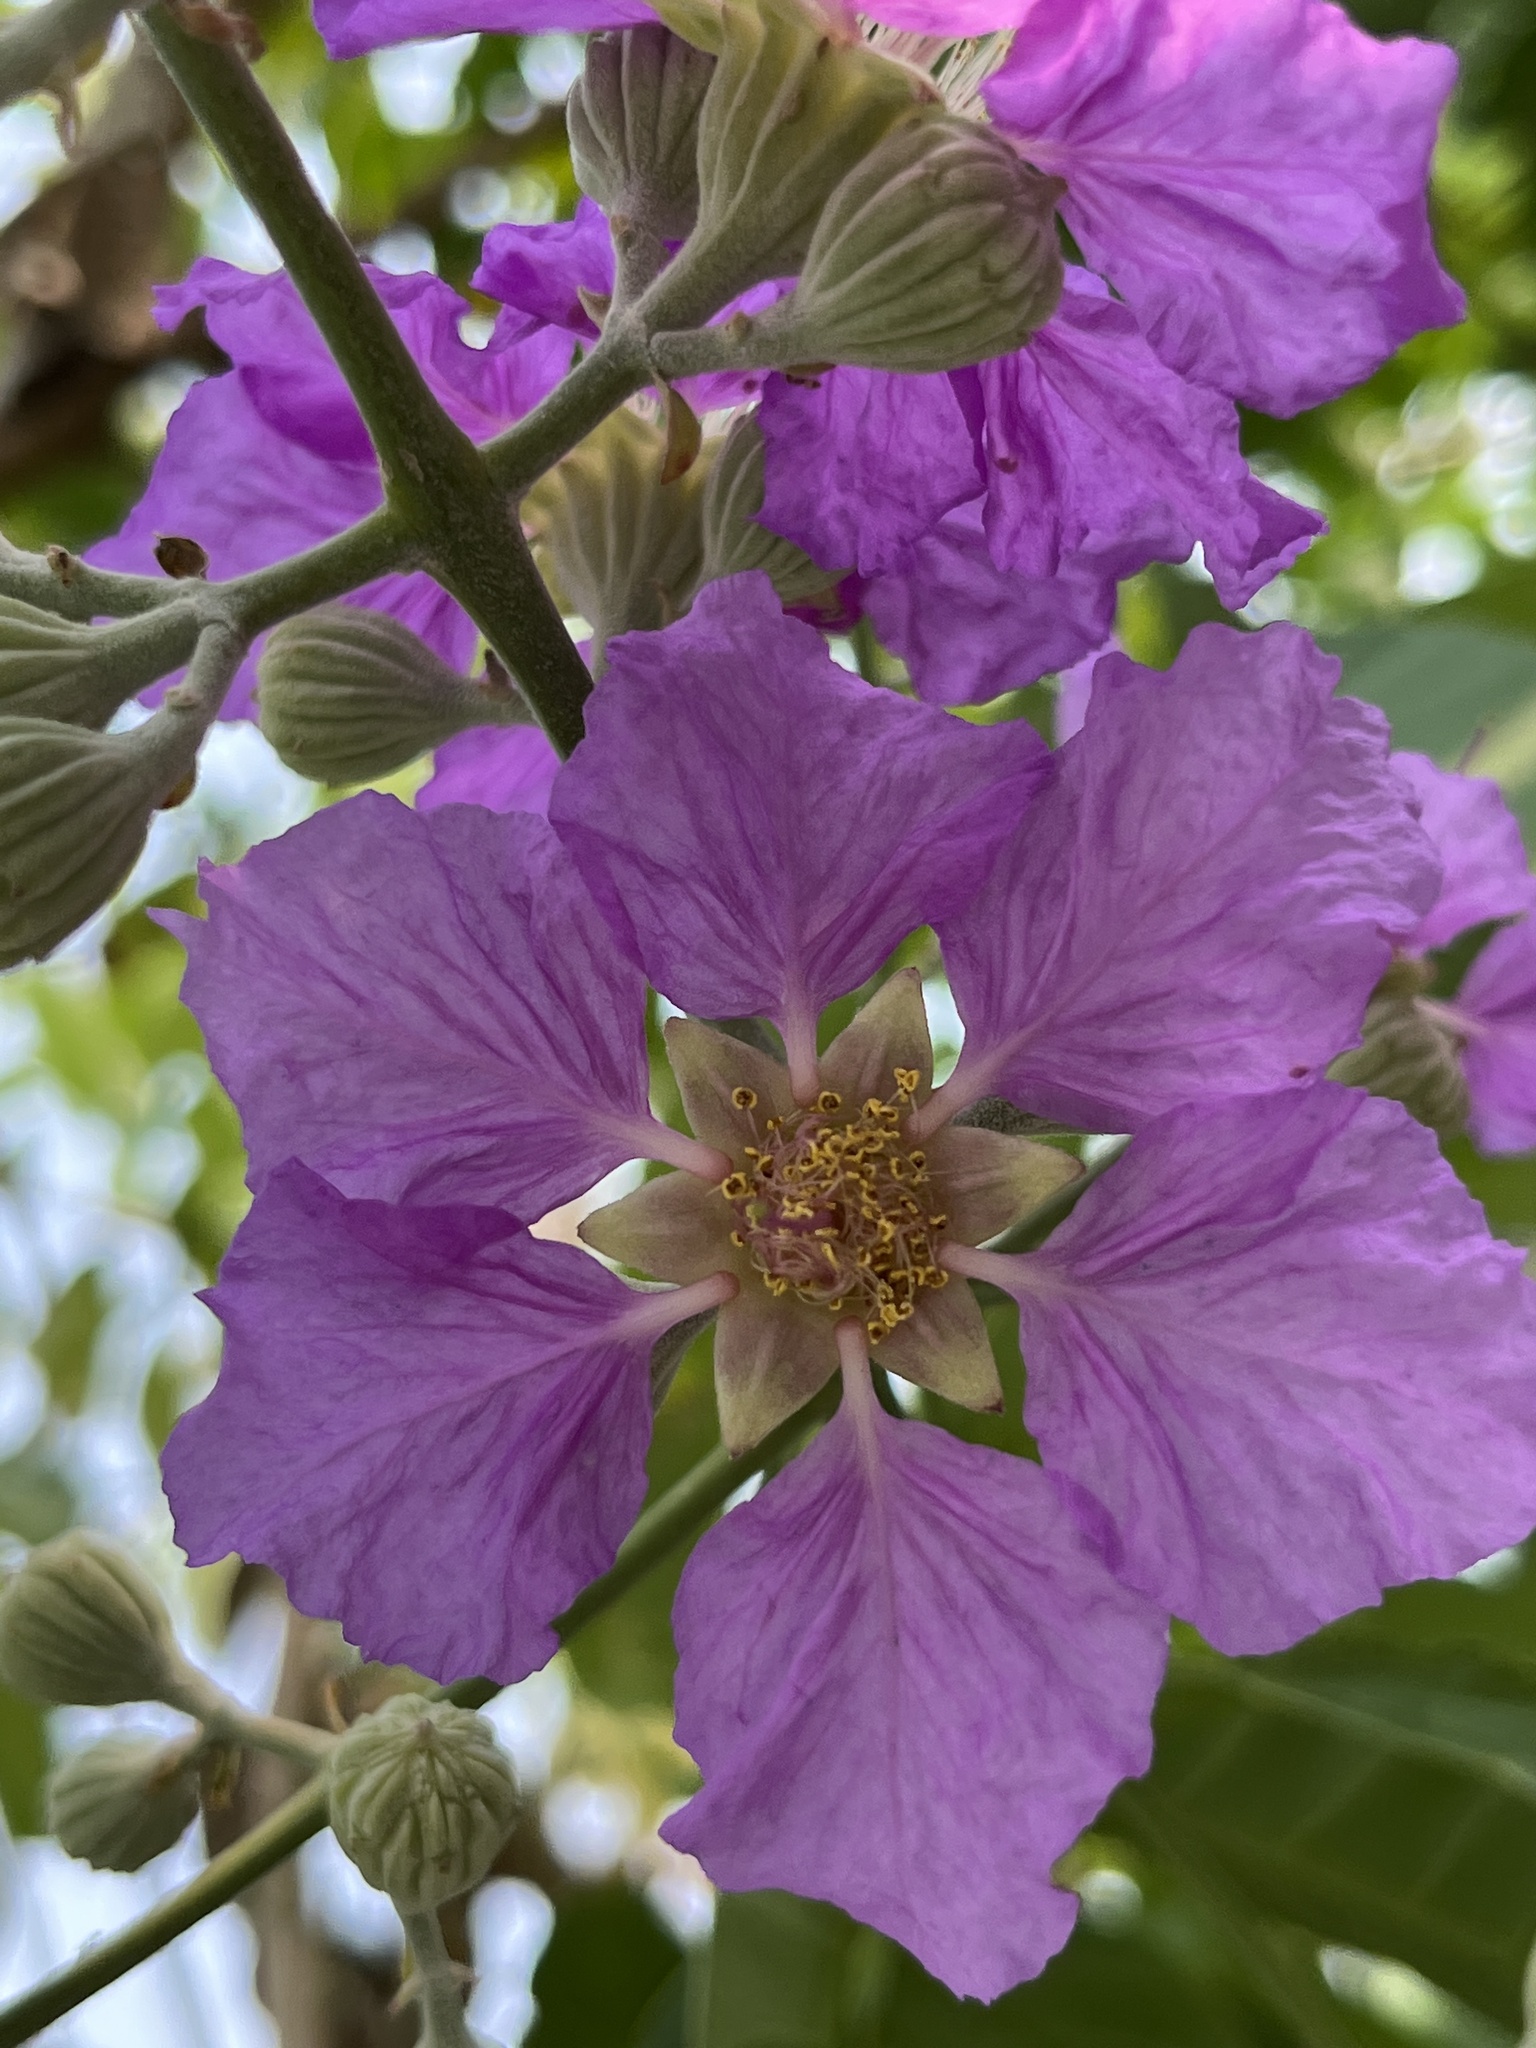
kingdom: Plantae
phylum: Tracheophyta
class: Magnoliopsida
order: Myrtales
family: Lythraceae
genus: Lagerstroemia
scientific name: Lagerstroemia speciosa
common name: Queen's crape-myrtle
